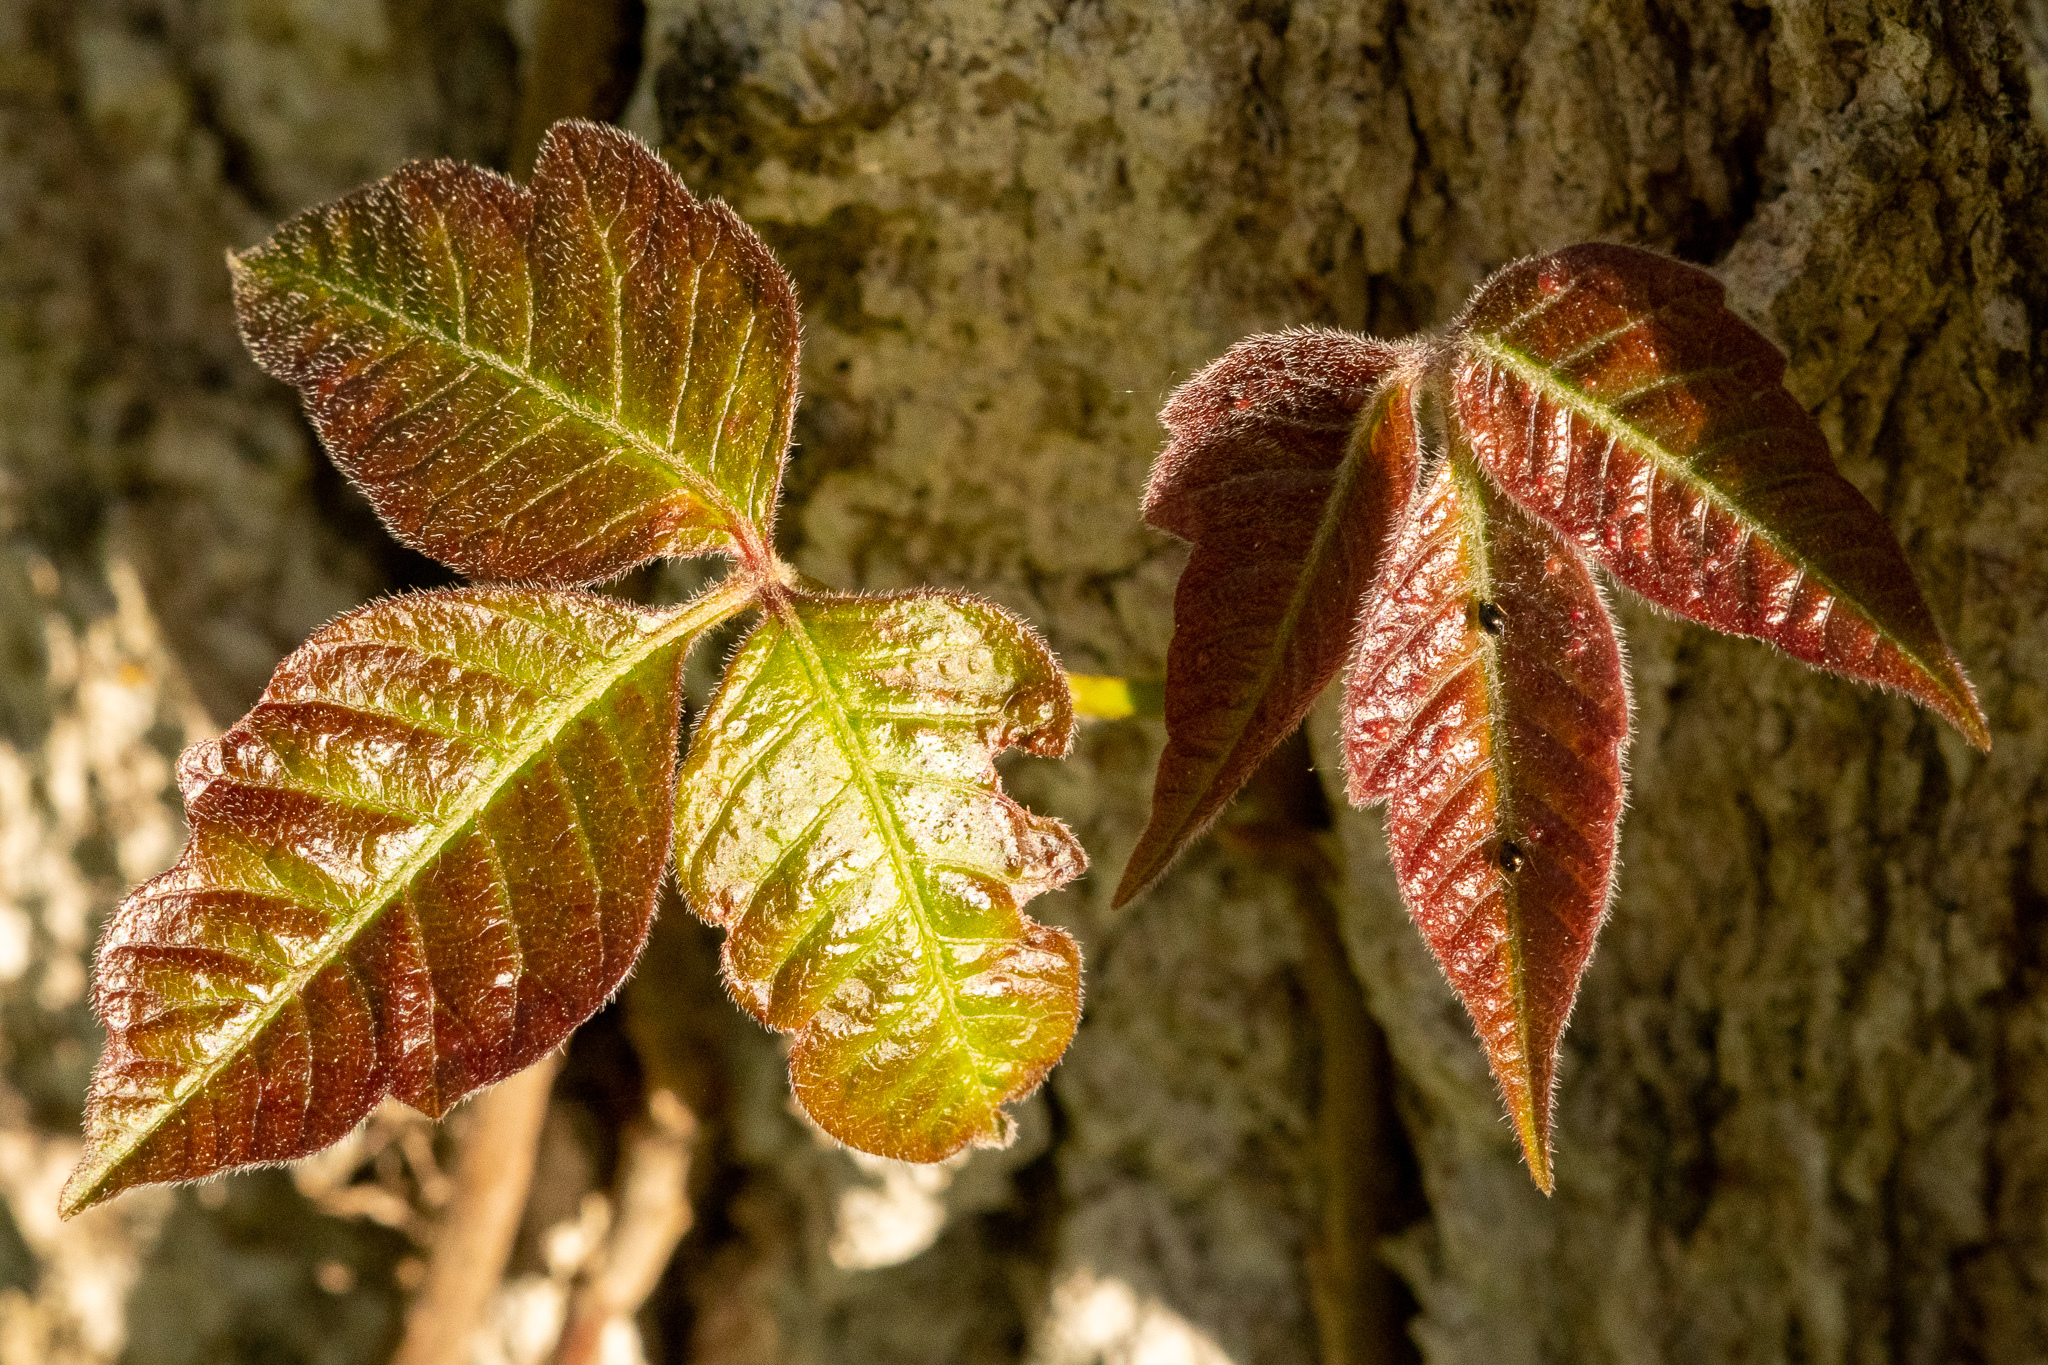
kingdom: Plantae
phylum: Tracheophyta
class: Magnoliopsida
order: Sapindales
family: Anacardiaceae
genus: Toxicodendron
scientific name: Toxicodendron radicans
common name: Poison ivy
